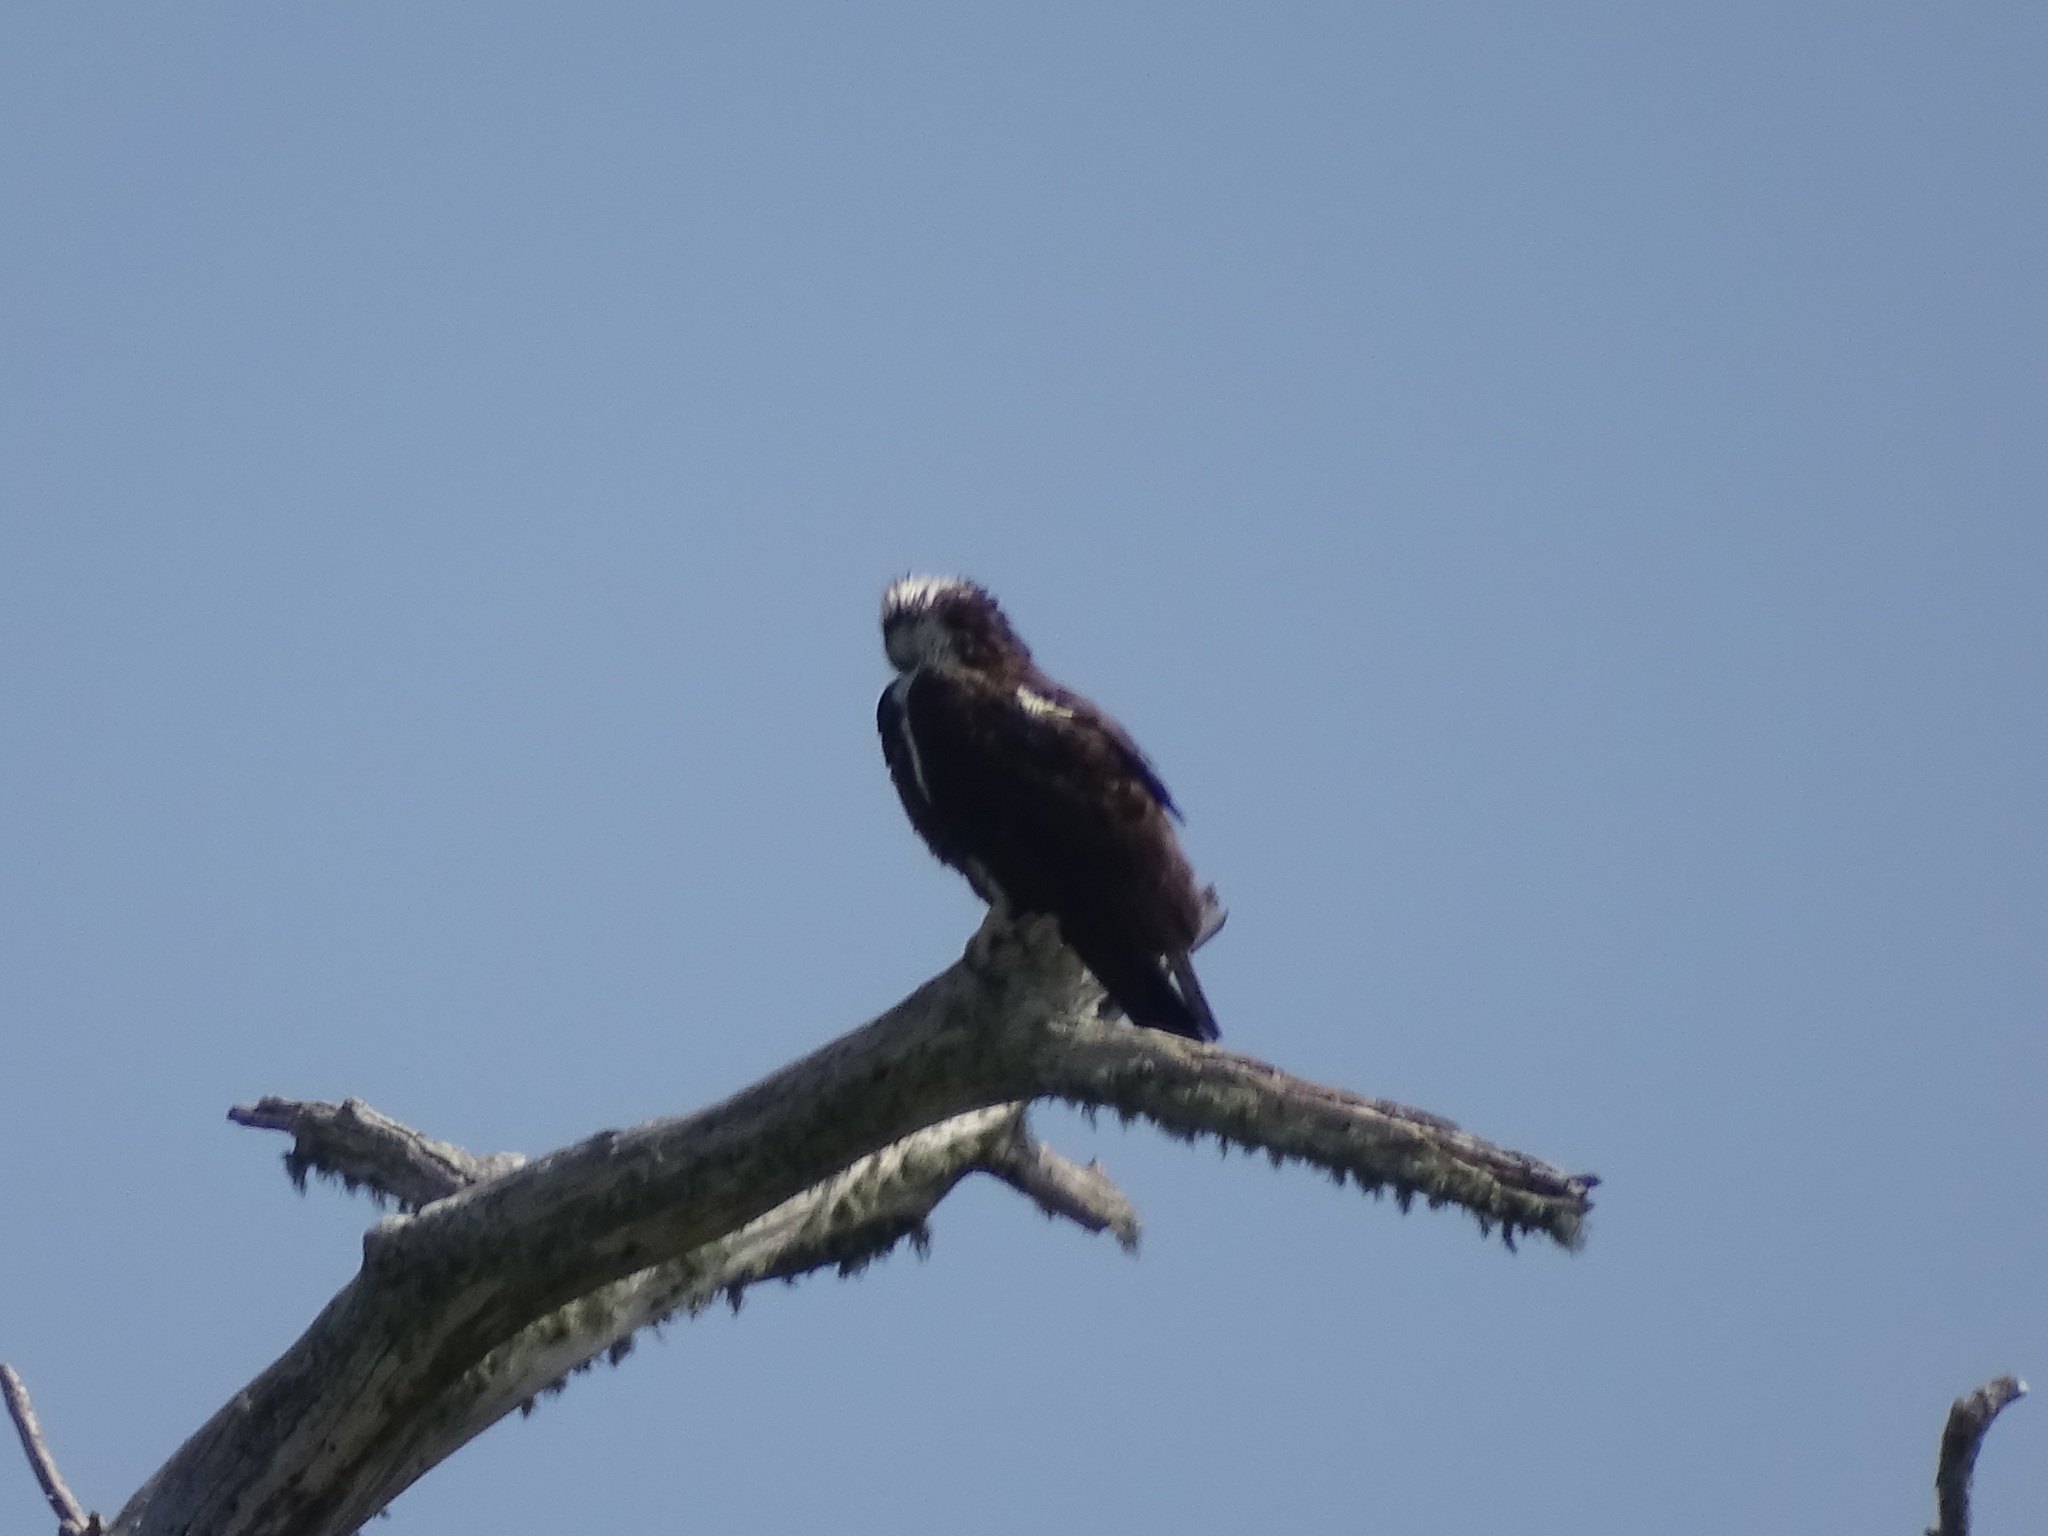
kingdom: Animalia
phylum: Chordata
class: Aves
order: Accipitriformes
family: Pandionidae
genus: Pandion
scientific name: Pandion haliaetus
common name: Osprey
